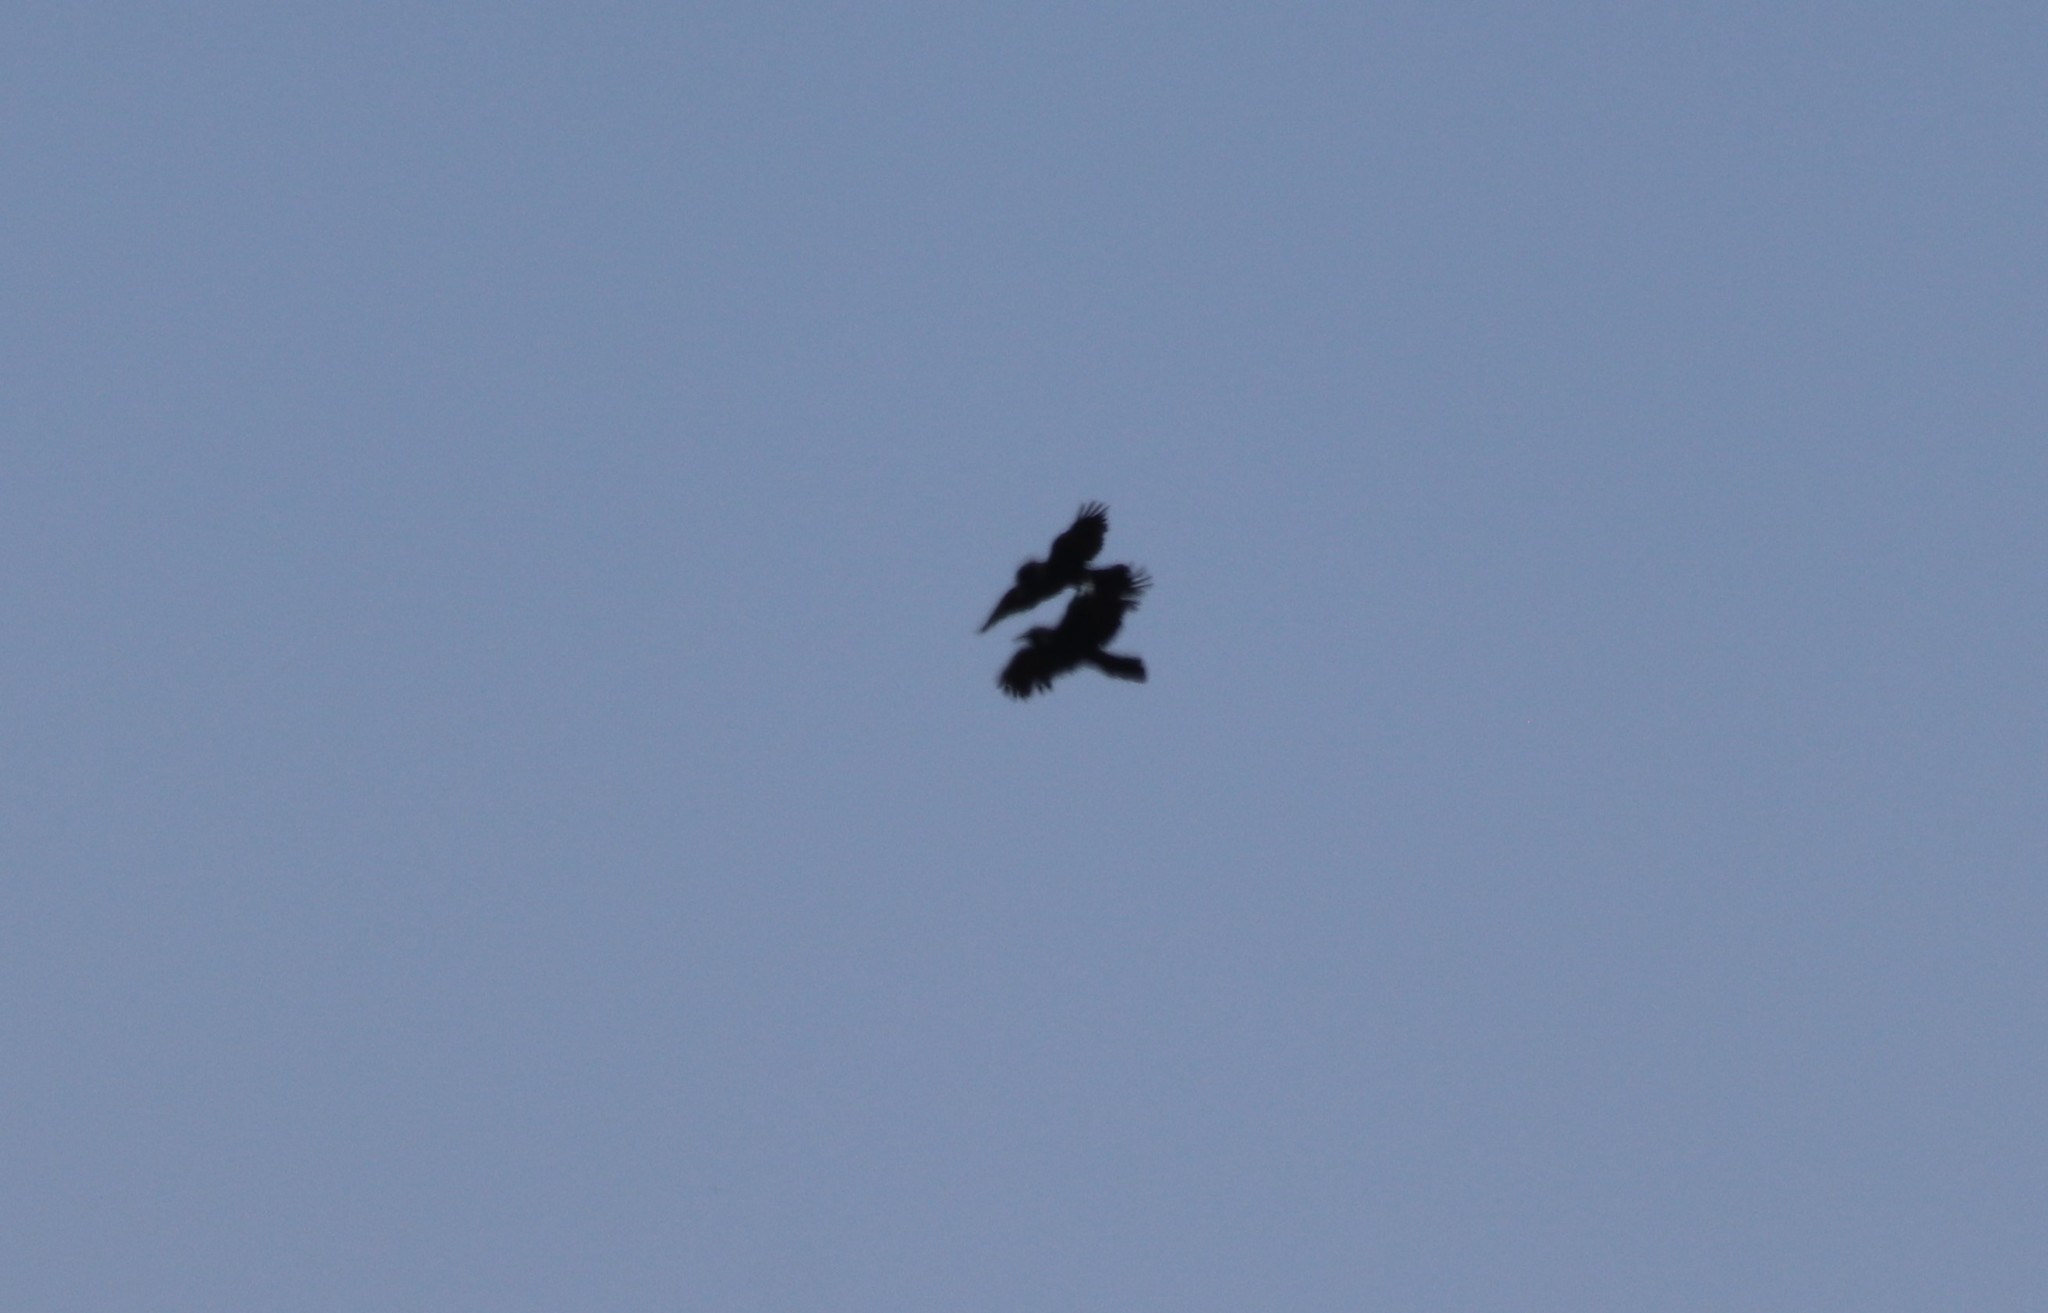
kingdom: Animalia
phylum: Chordata
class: Aves
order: Passeriformes
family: Corvidae
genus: Corvus
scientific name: Corvus corax
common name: Common raven
